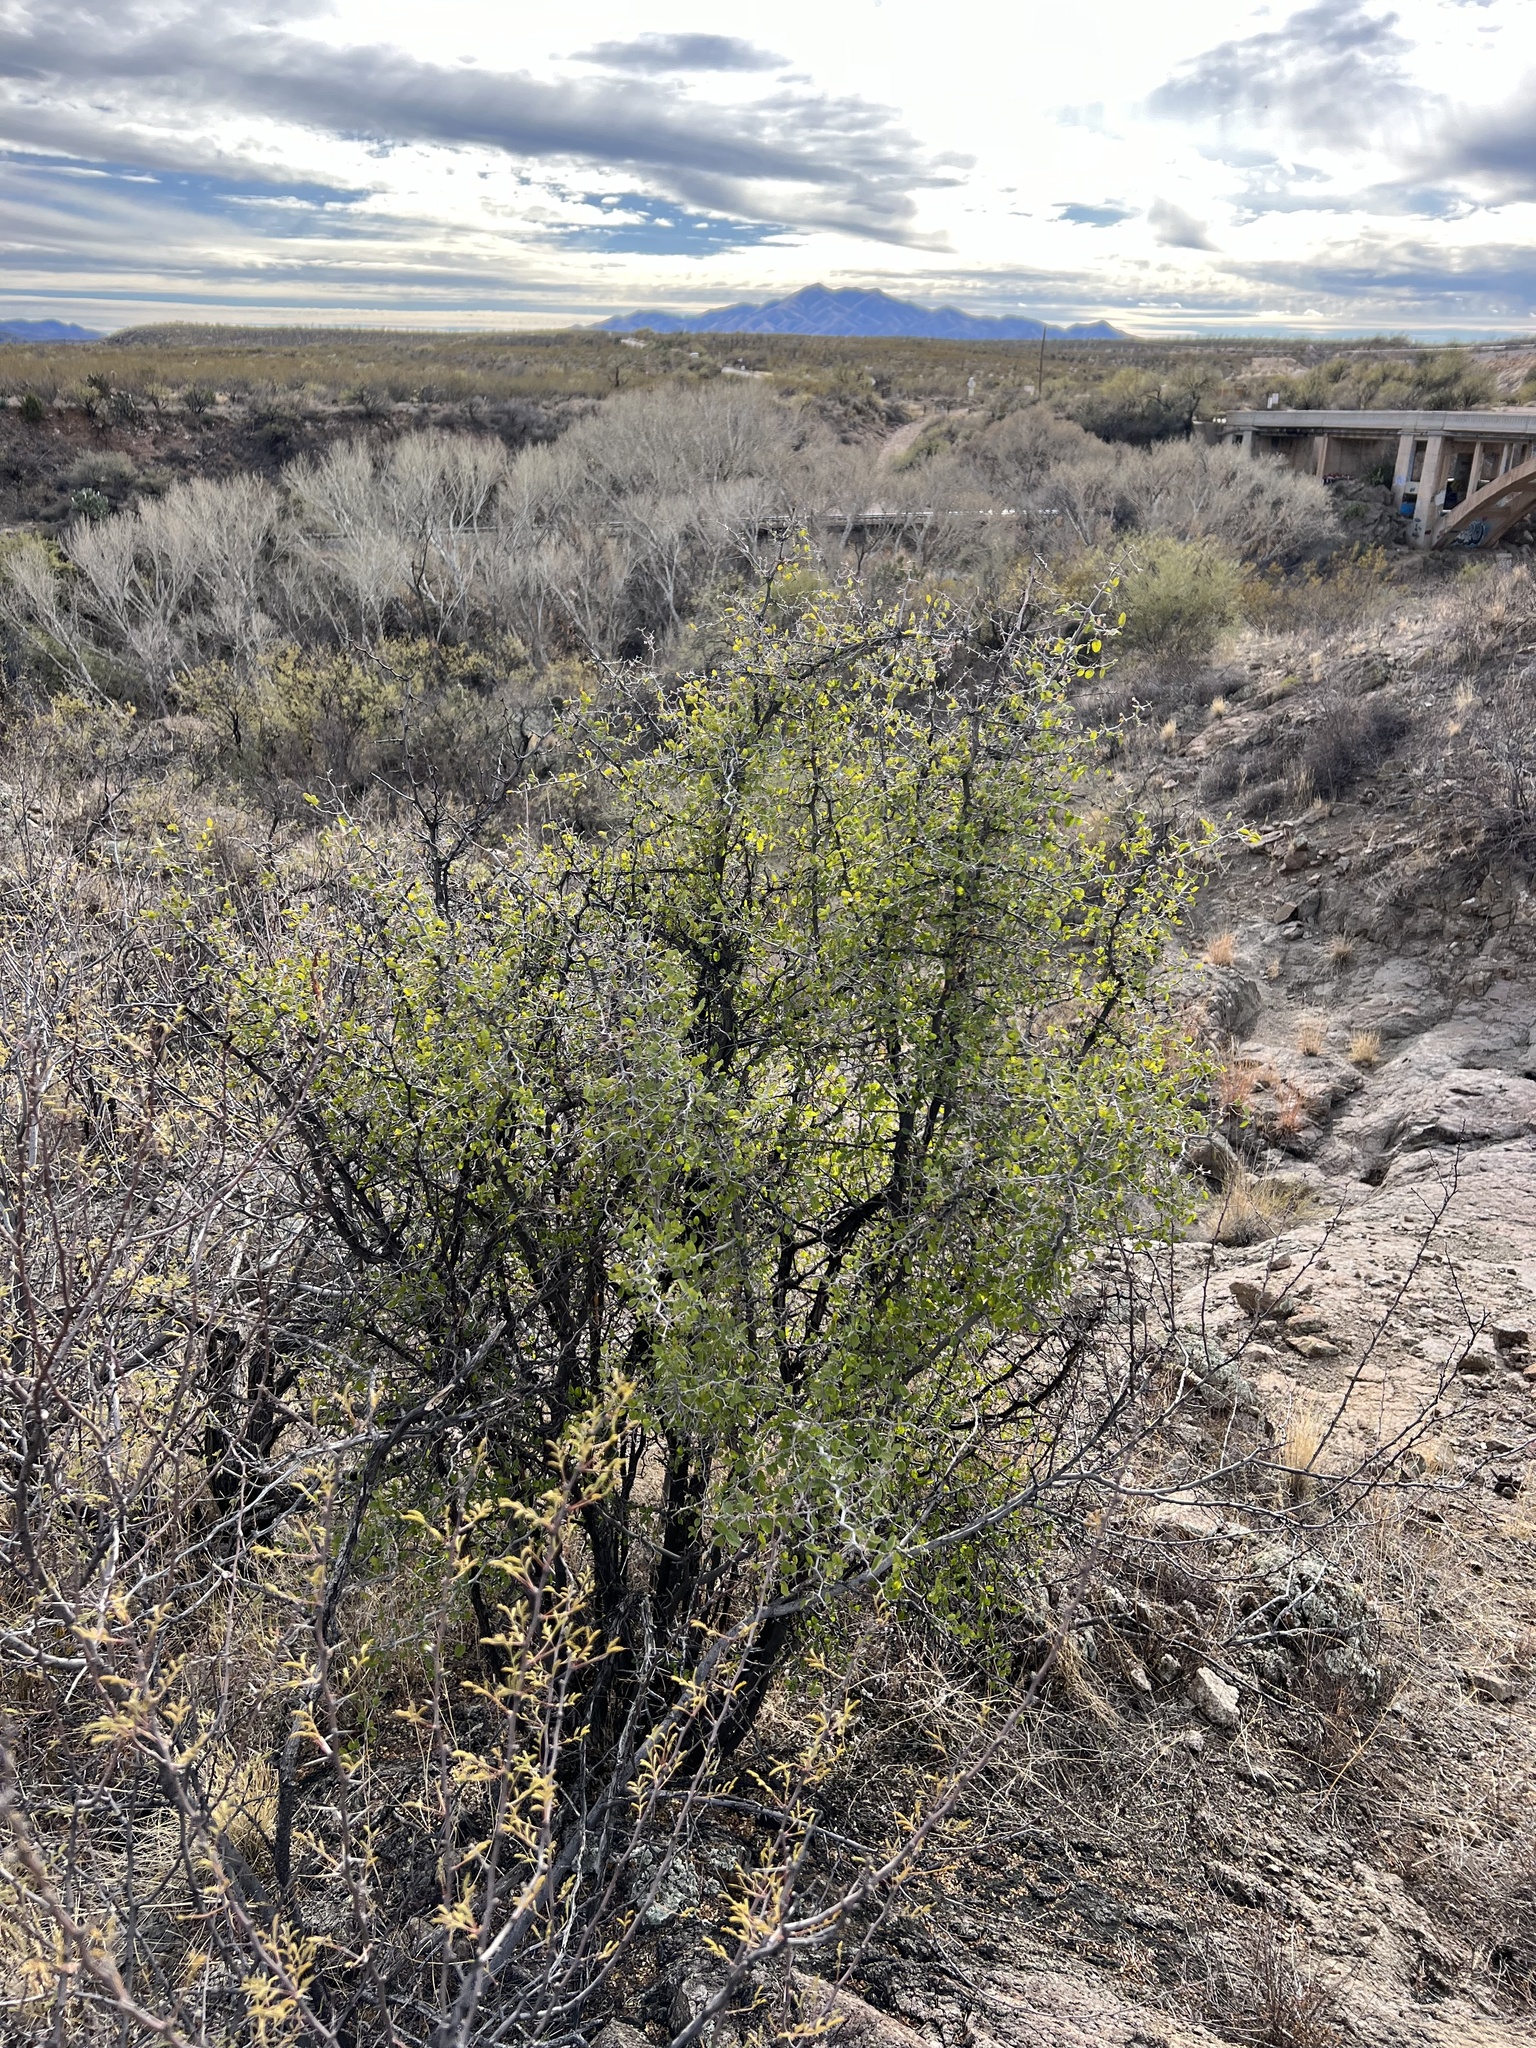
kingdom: Plantae
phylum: Tracheophyta
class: Magnoliopsida
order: Rosales
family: Cannabaceae
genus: Celtis
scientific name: Celtis pallida
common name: Desert hackberry
